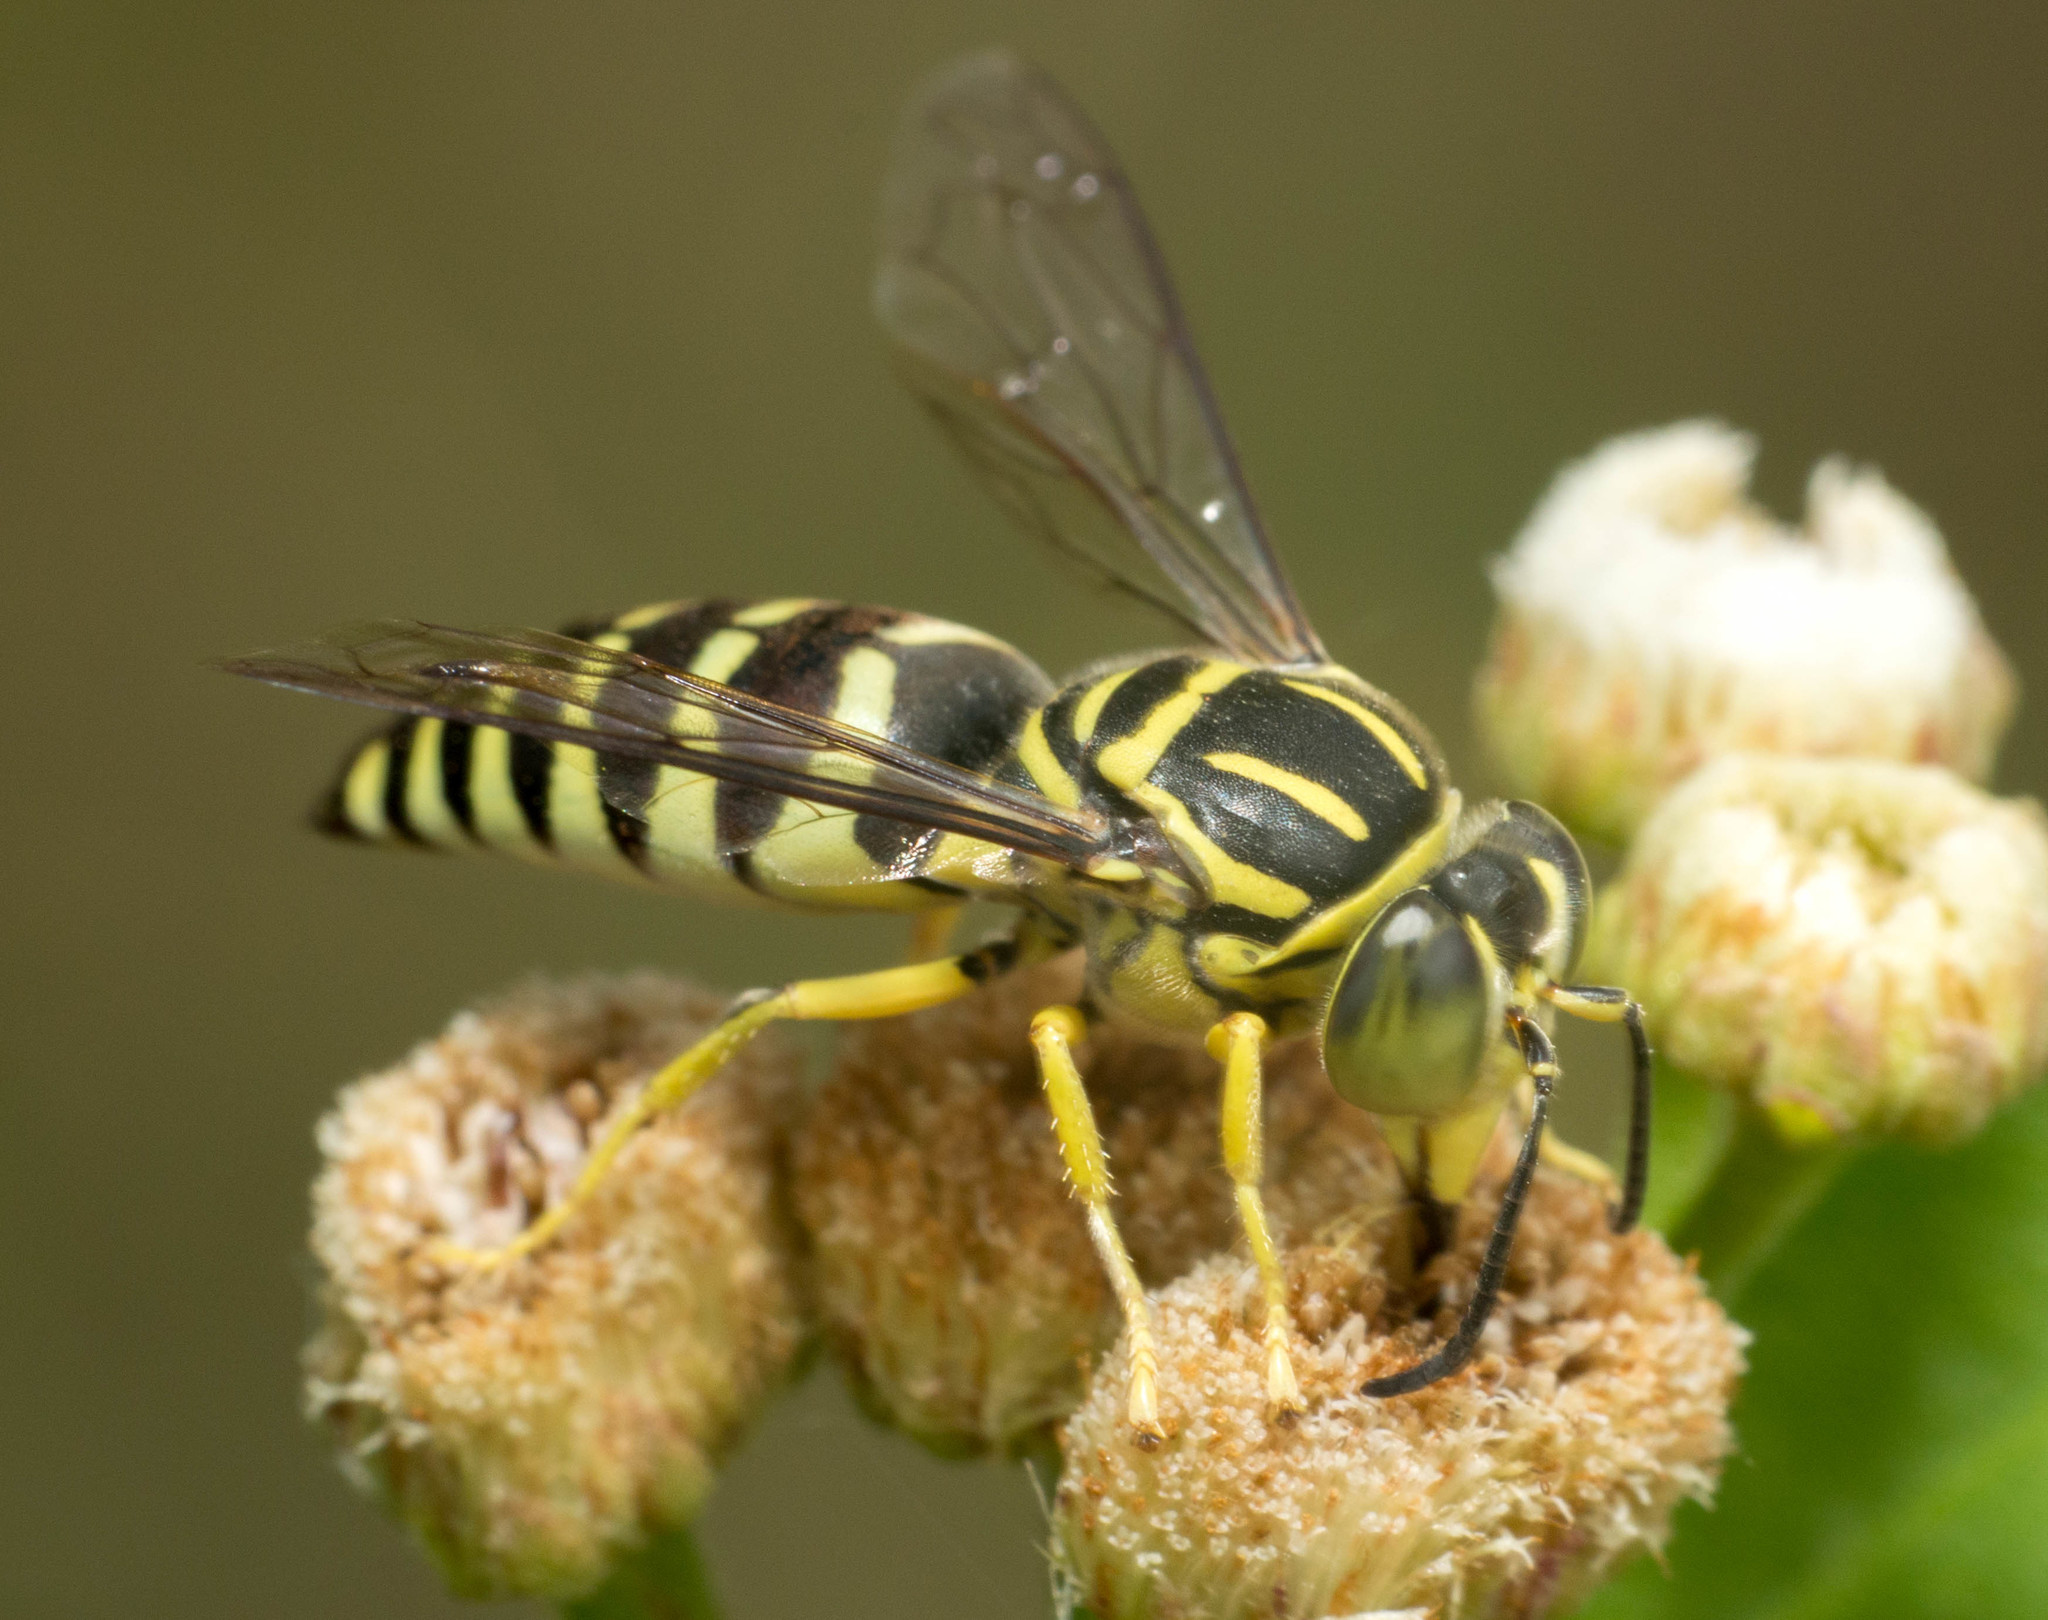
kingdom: Animalia
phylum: Arthropoda
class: Insecta
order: Hymenoptera
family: Crabronidae
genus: Bicyrtes
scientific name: Bicyrtes variegatus
